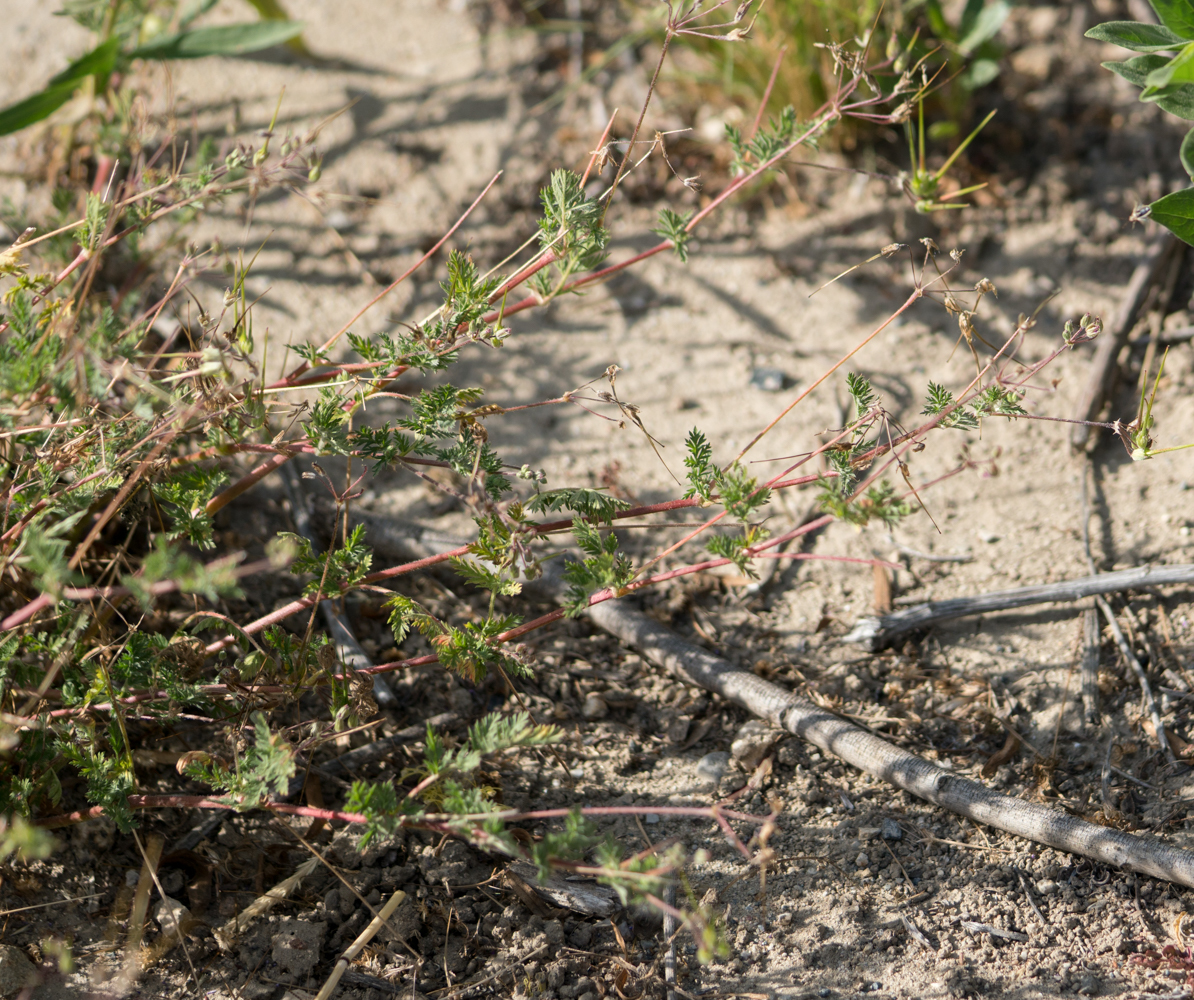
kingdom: Plantae
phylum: Tracheophyta
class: Magnoliopsida
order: Geraniales
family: Geraniaceae
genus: Erodium
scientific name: Erodium cicutarium
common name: Common stork's-bill
